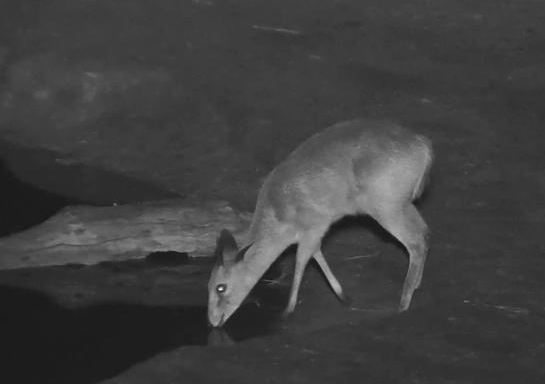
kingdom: Animalia
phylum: Chordata
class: Mammalia
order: Artiodactyla
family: Bovidae
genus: Sylvicapra
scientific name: Sylvicapra grimmia
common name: Bush duiker
